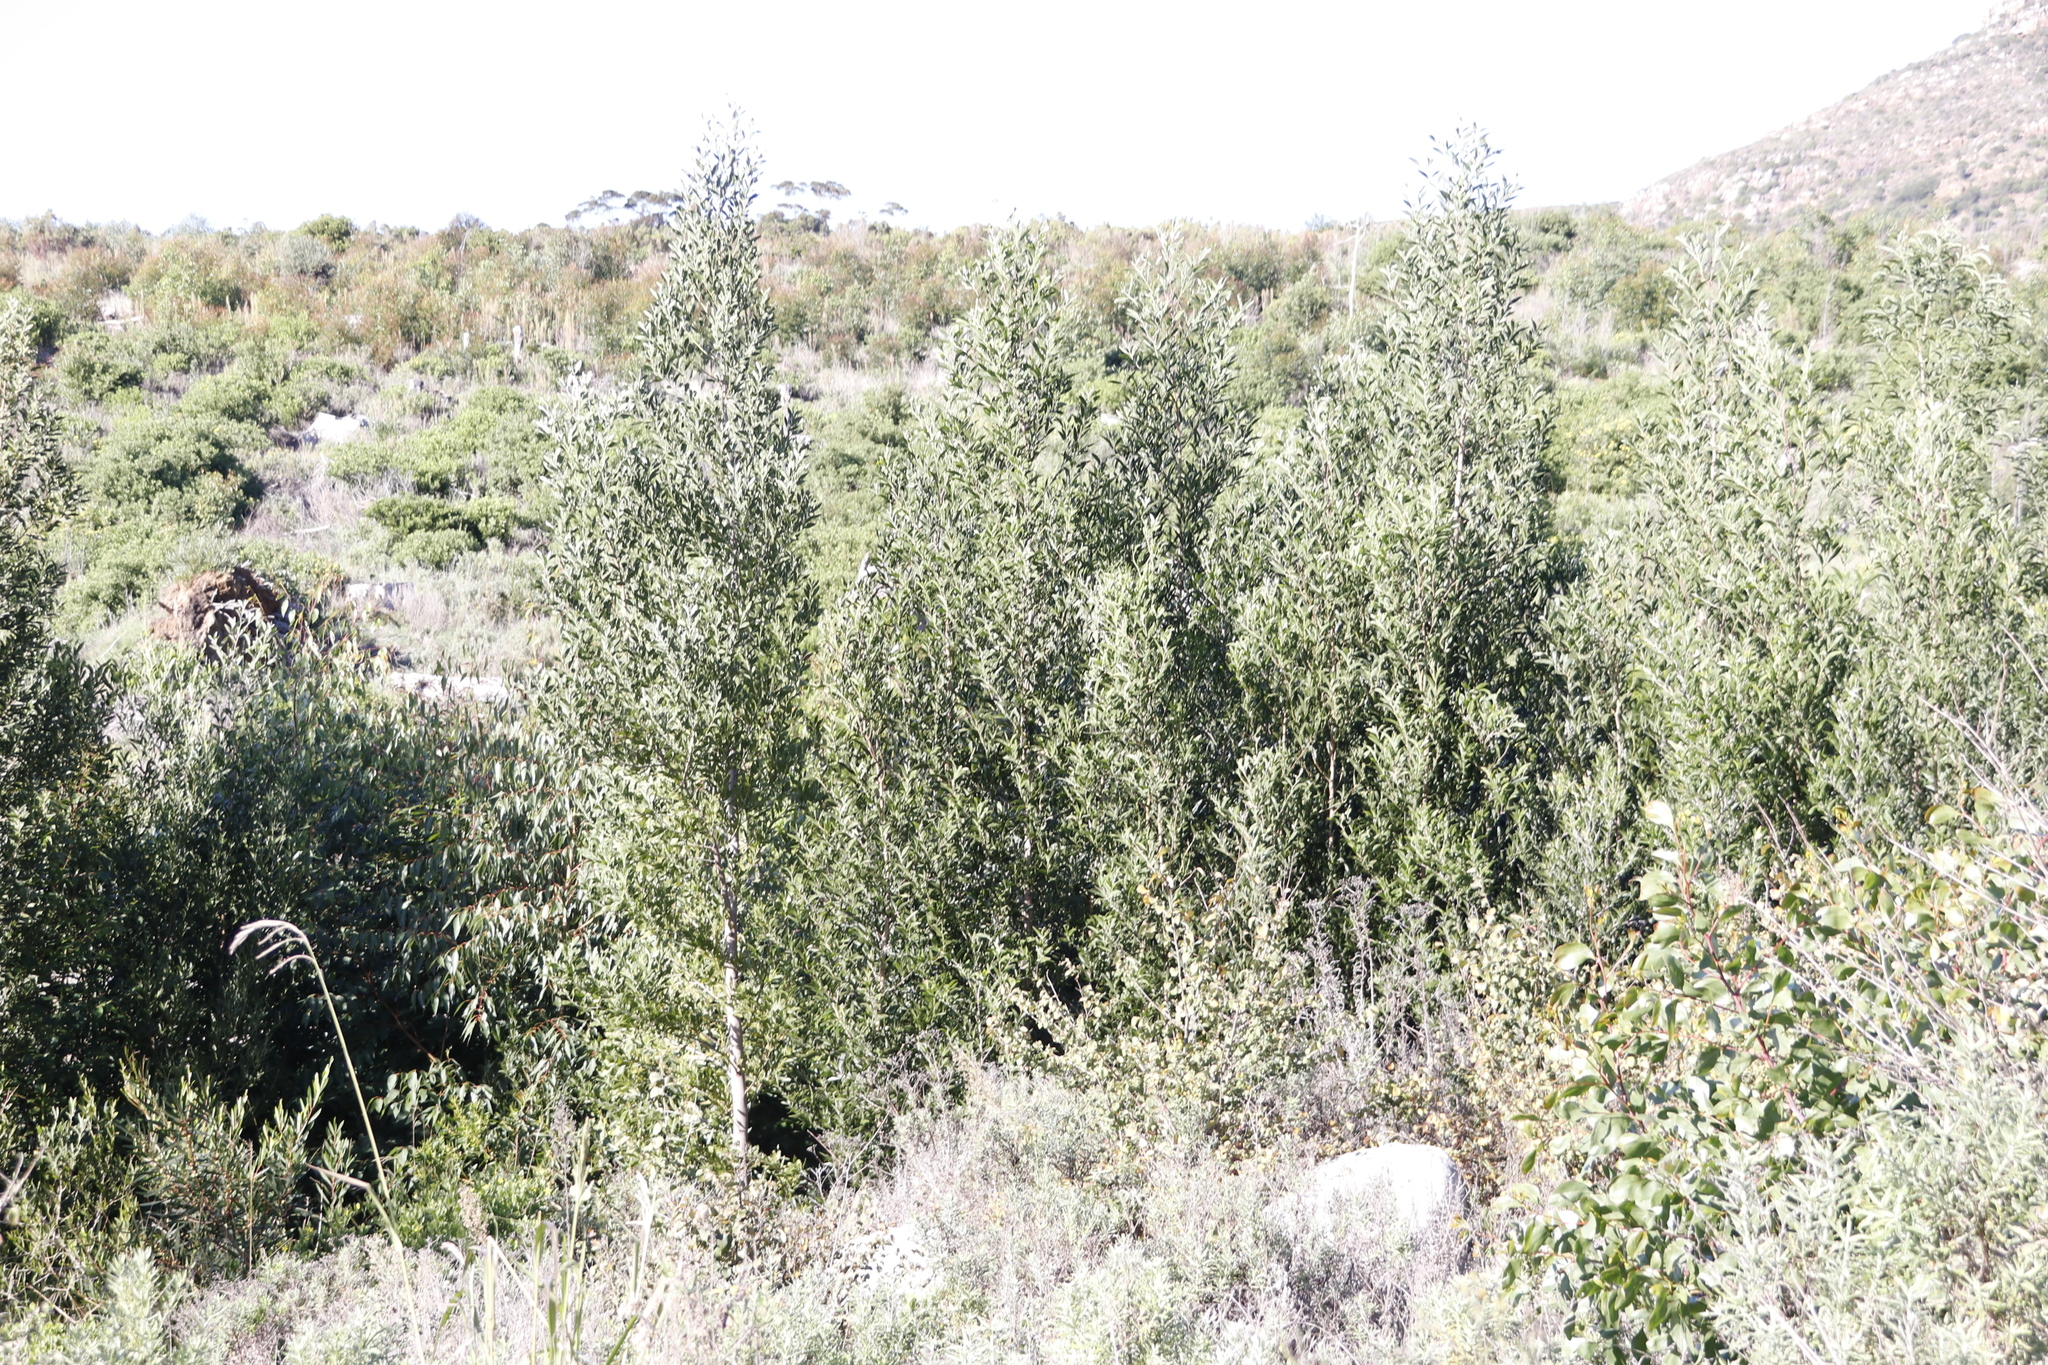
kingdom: Plantae
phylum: Tracheophyta
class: Magnoliopsida
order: Fabales
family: Fabaceae
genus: Acacia
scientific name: Acacia melanoxylon
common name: Blackwood
